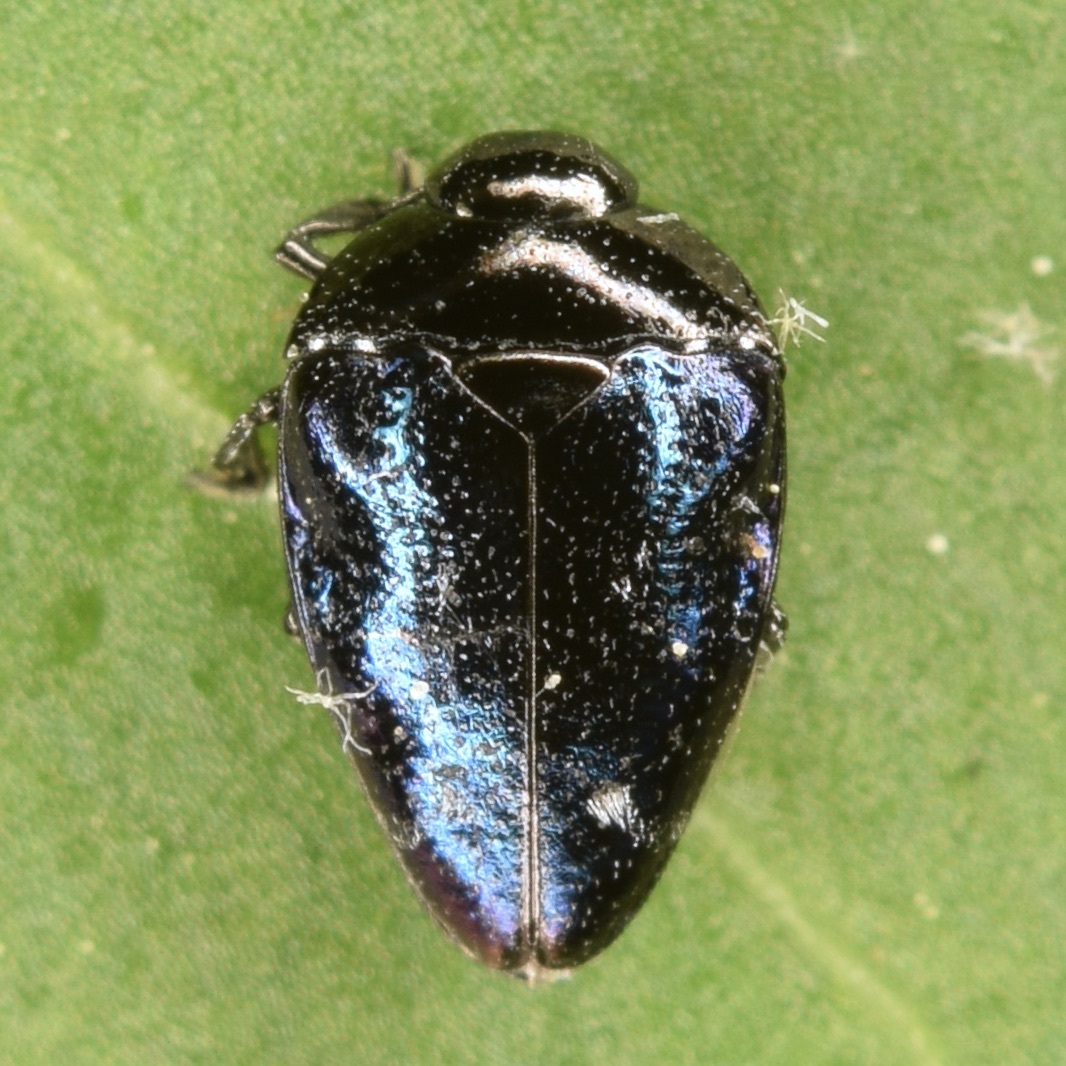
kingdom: Animalia
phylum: Arthropoda
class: Insecta
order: Coleoptera
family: Buprestidae
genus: Pachyschelus
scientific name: Pachyschelus purpureus
